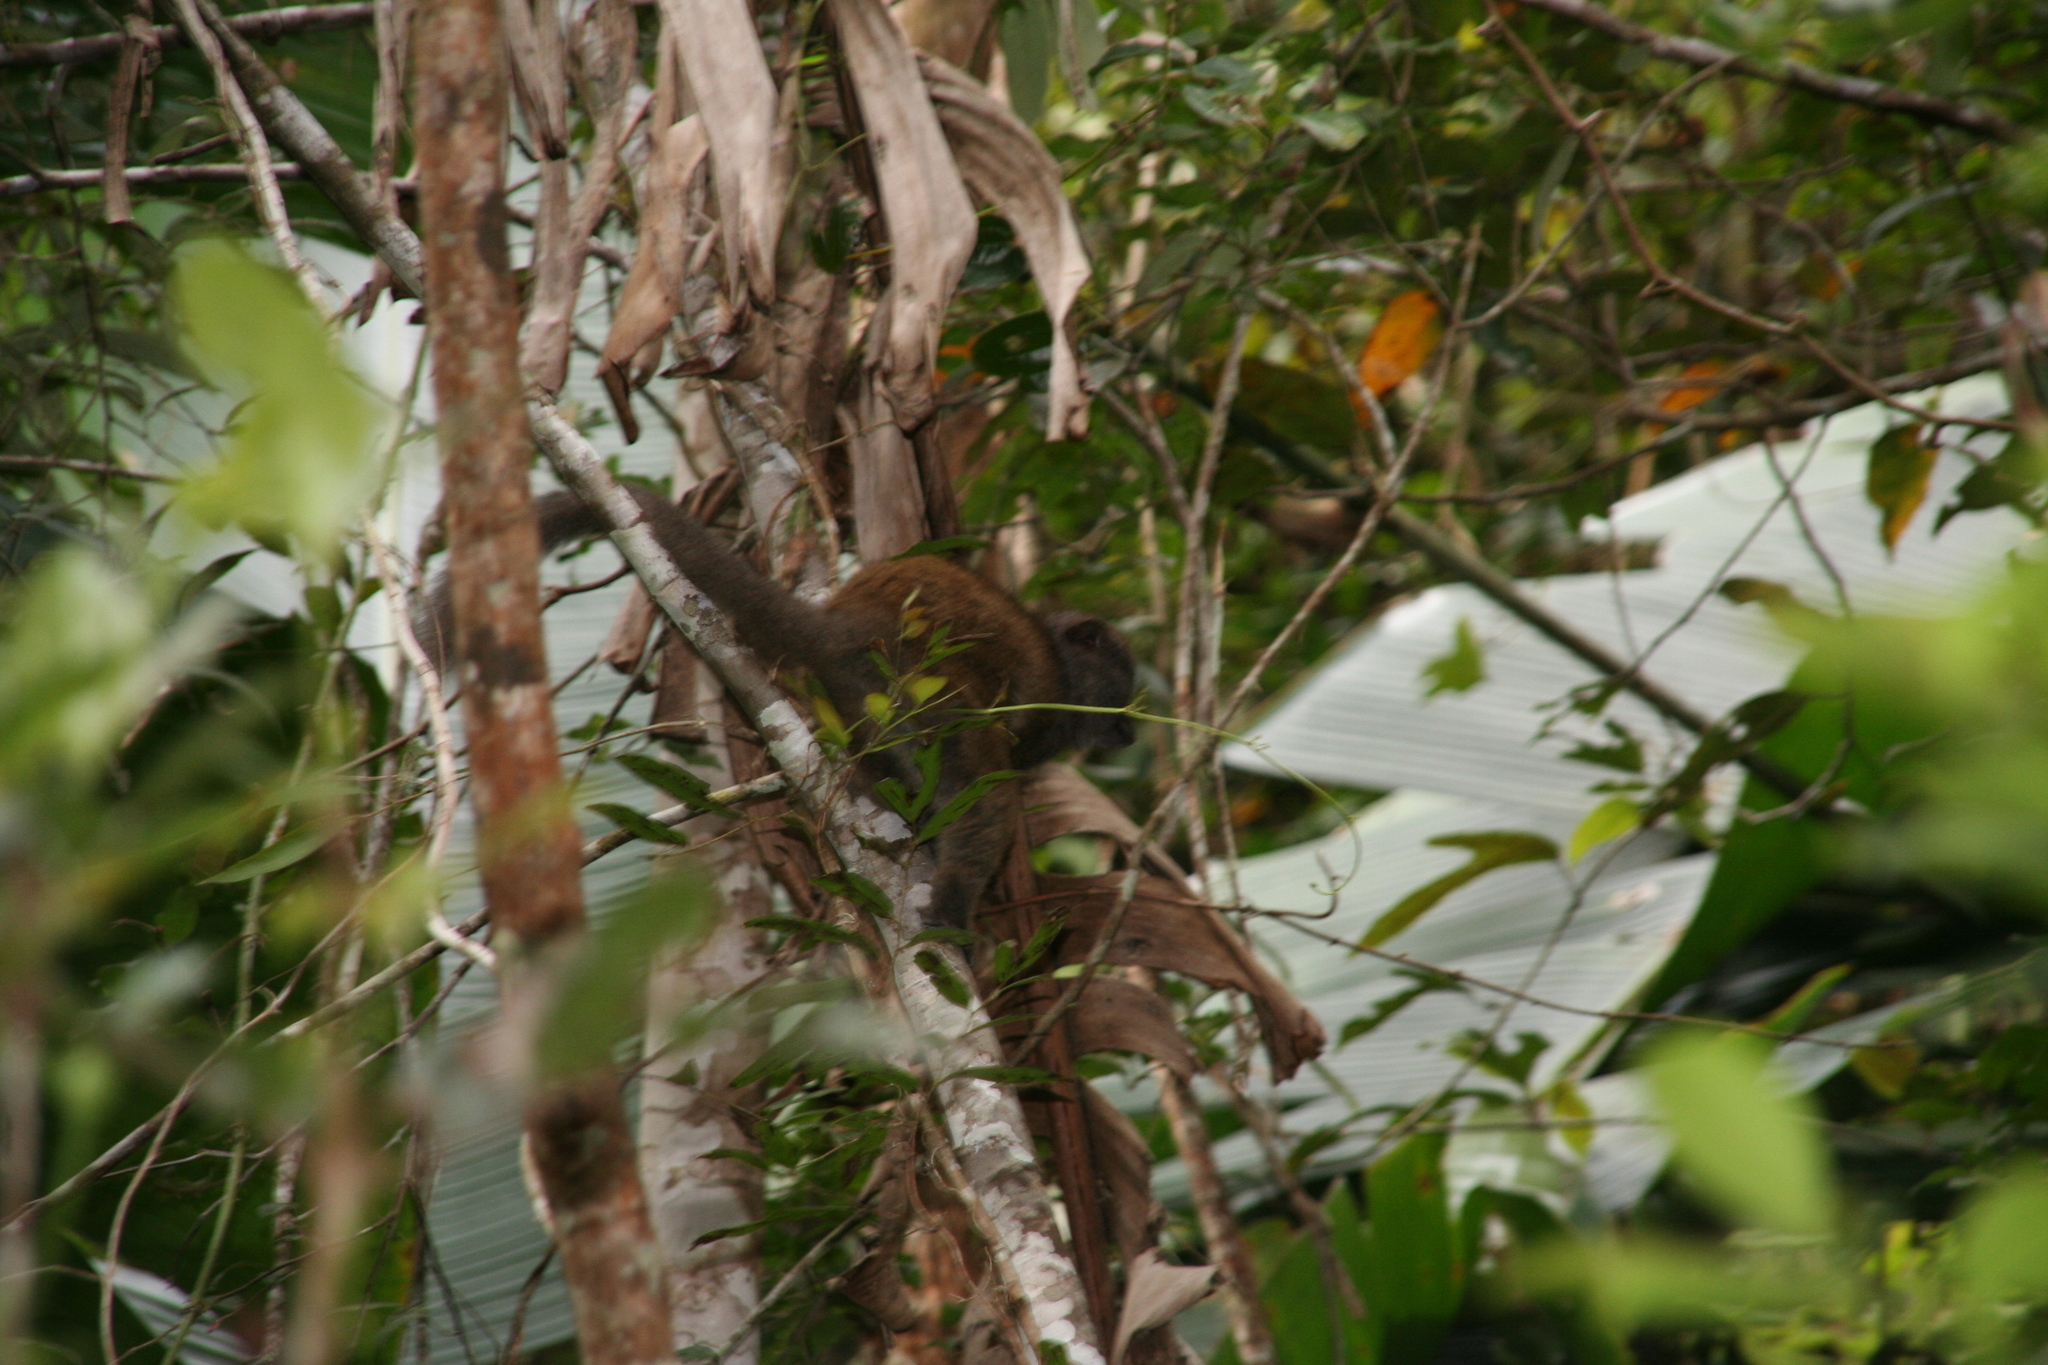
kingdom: Animalia
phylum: Chordata
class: Mammalia
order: Primates
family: Lemuridae
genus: Hapalemur
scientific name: Hapalemur griseus
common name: Gray bamboo lemur
